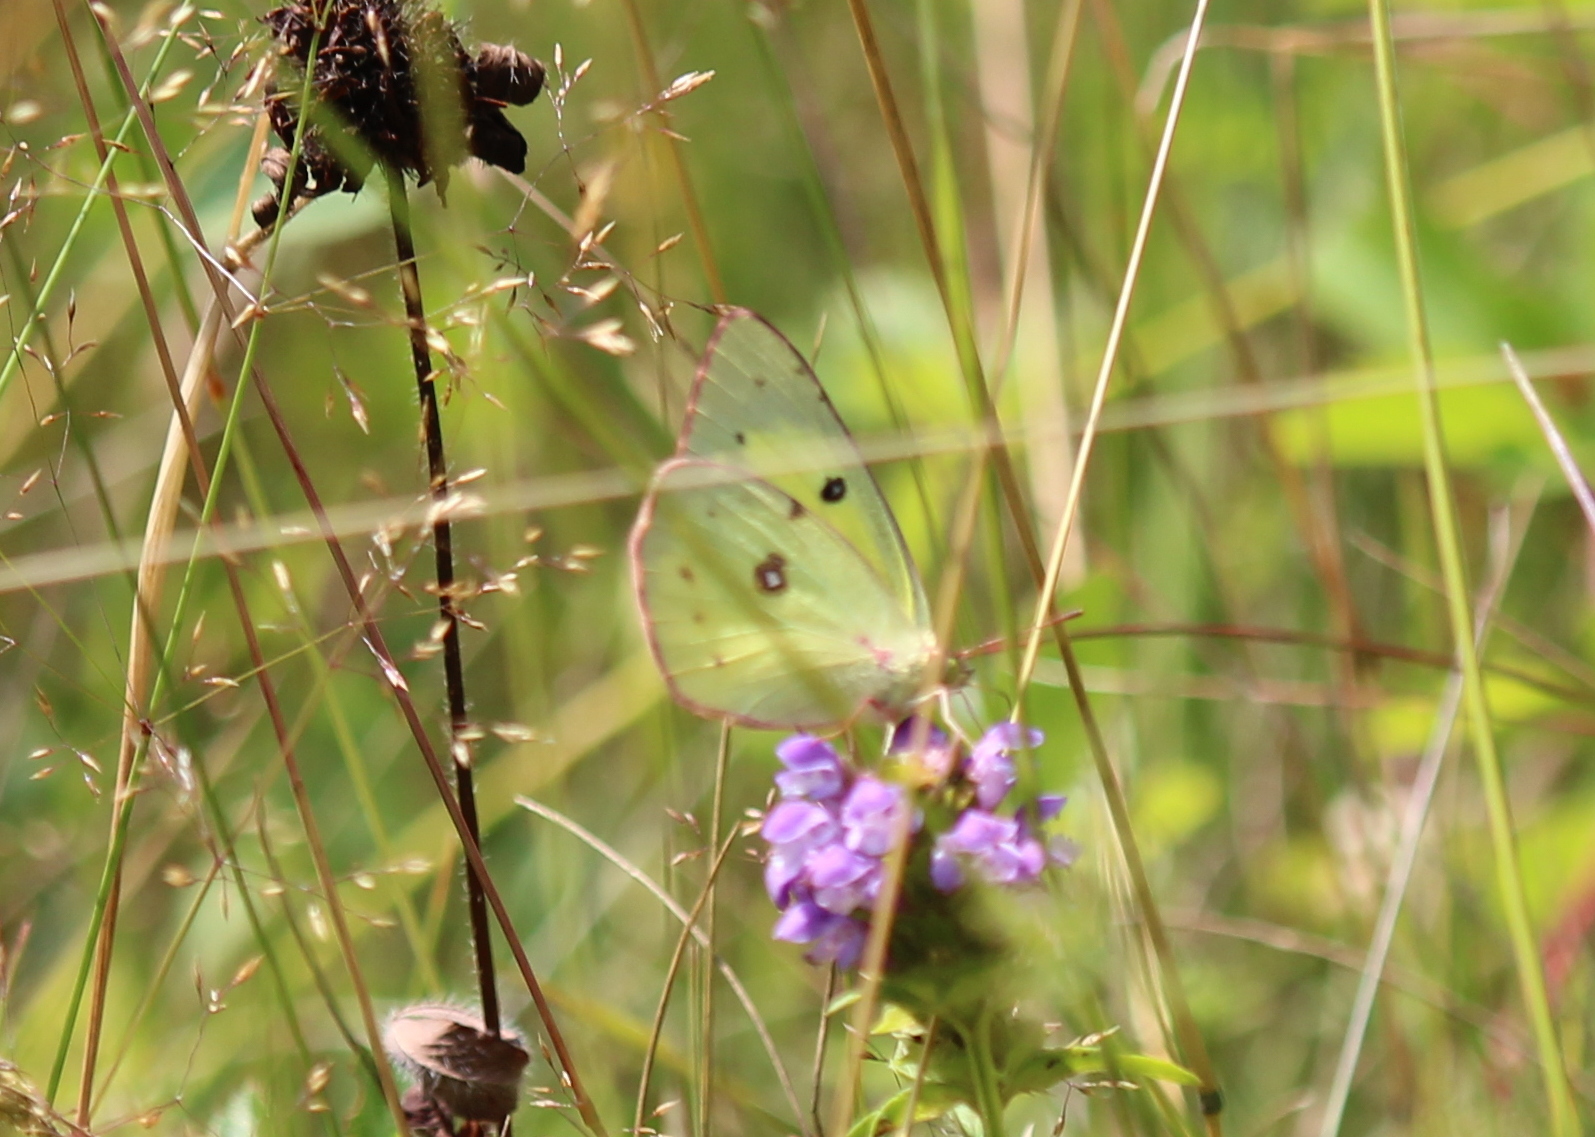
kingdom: Animalia
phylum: Arthropoda
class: Insecta
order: Lepidoptera
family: Pieridae
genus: Colias
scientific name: Colias philodice
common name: Clouded sulphur
